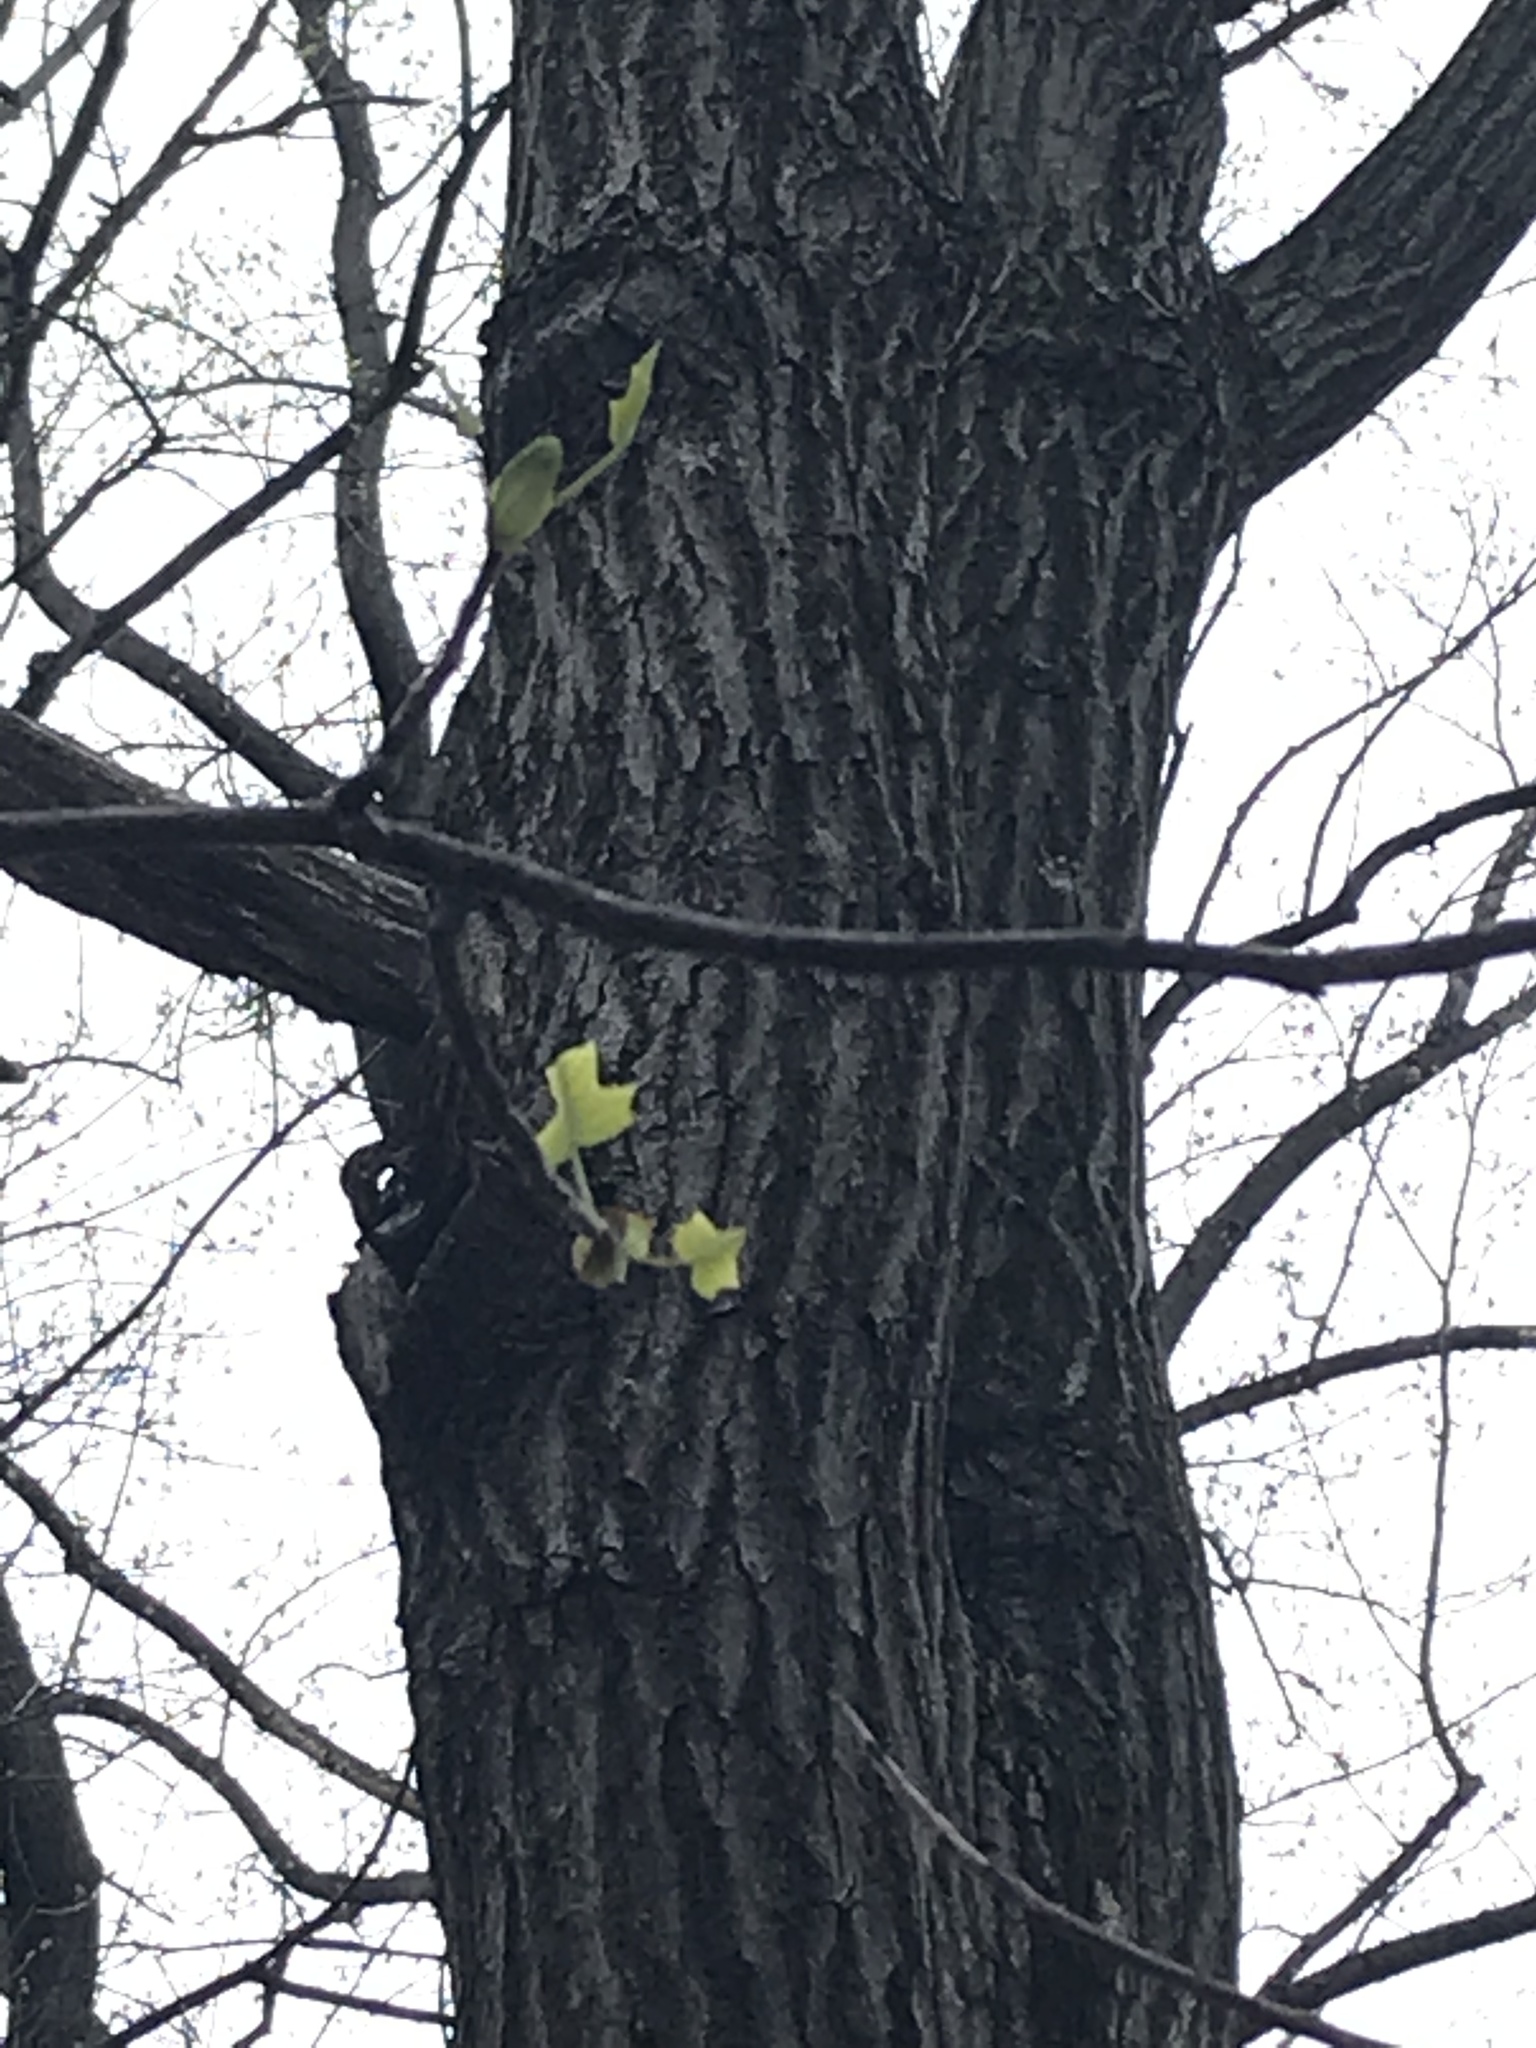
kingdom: Plantae
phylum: Tracheophyta
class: Magnoliopsida
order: Magnoliales
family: Magnoliaceae
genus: Liriodendron
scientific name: Liriodendron tulipifera
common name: Tulip tree
